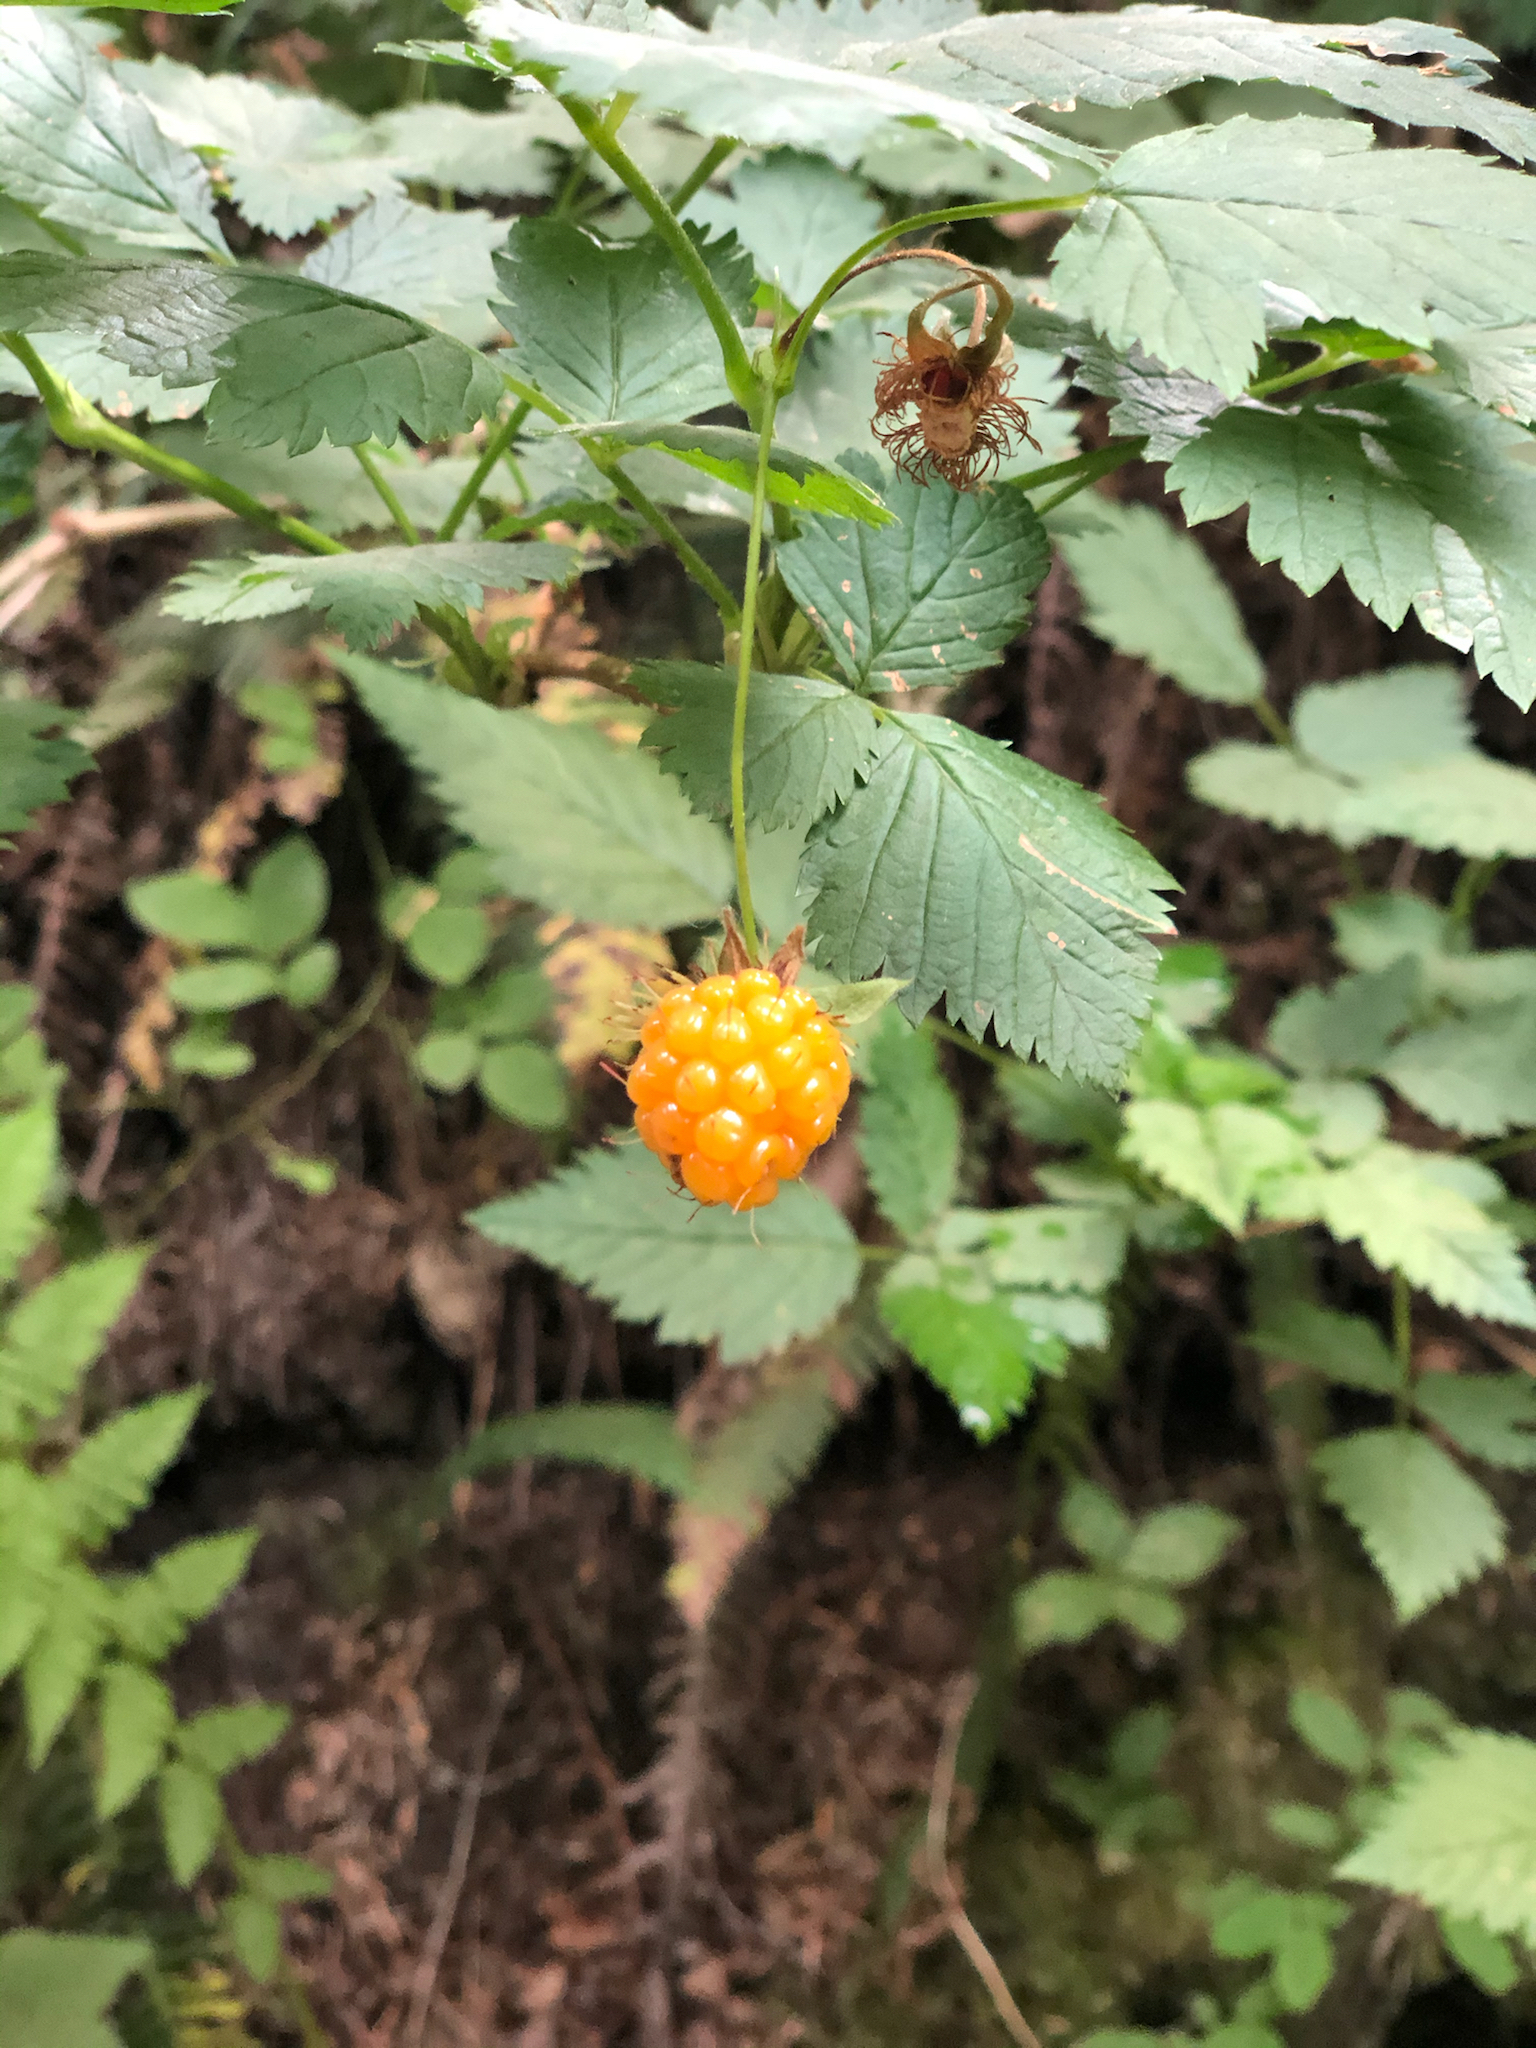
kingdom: Plantae
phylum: Tracheophyta
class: Magnoliopsida
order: Rosales
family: Rosaceae
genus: Rubus
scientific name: Rubus spectabilis
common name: Salmonberry
